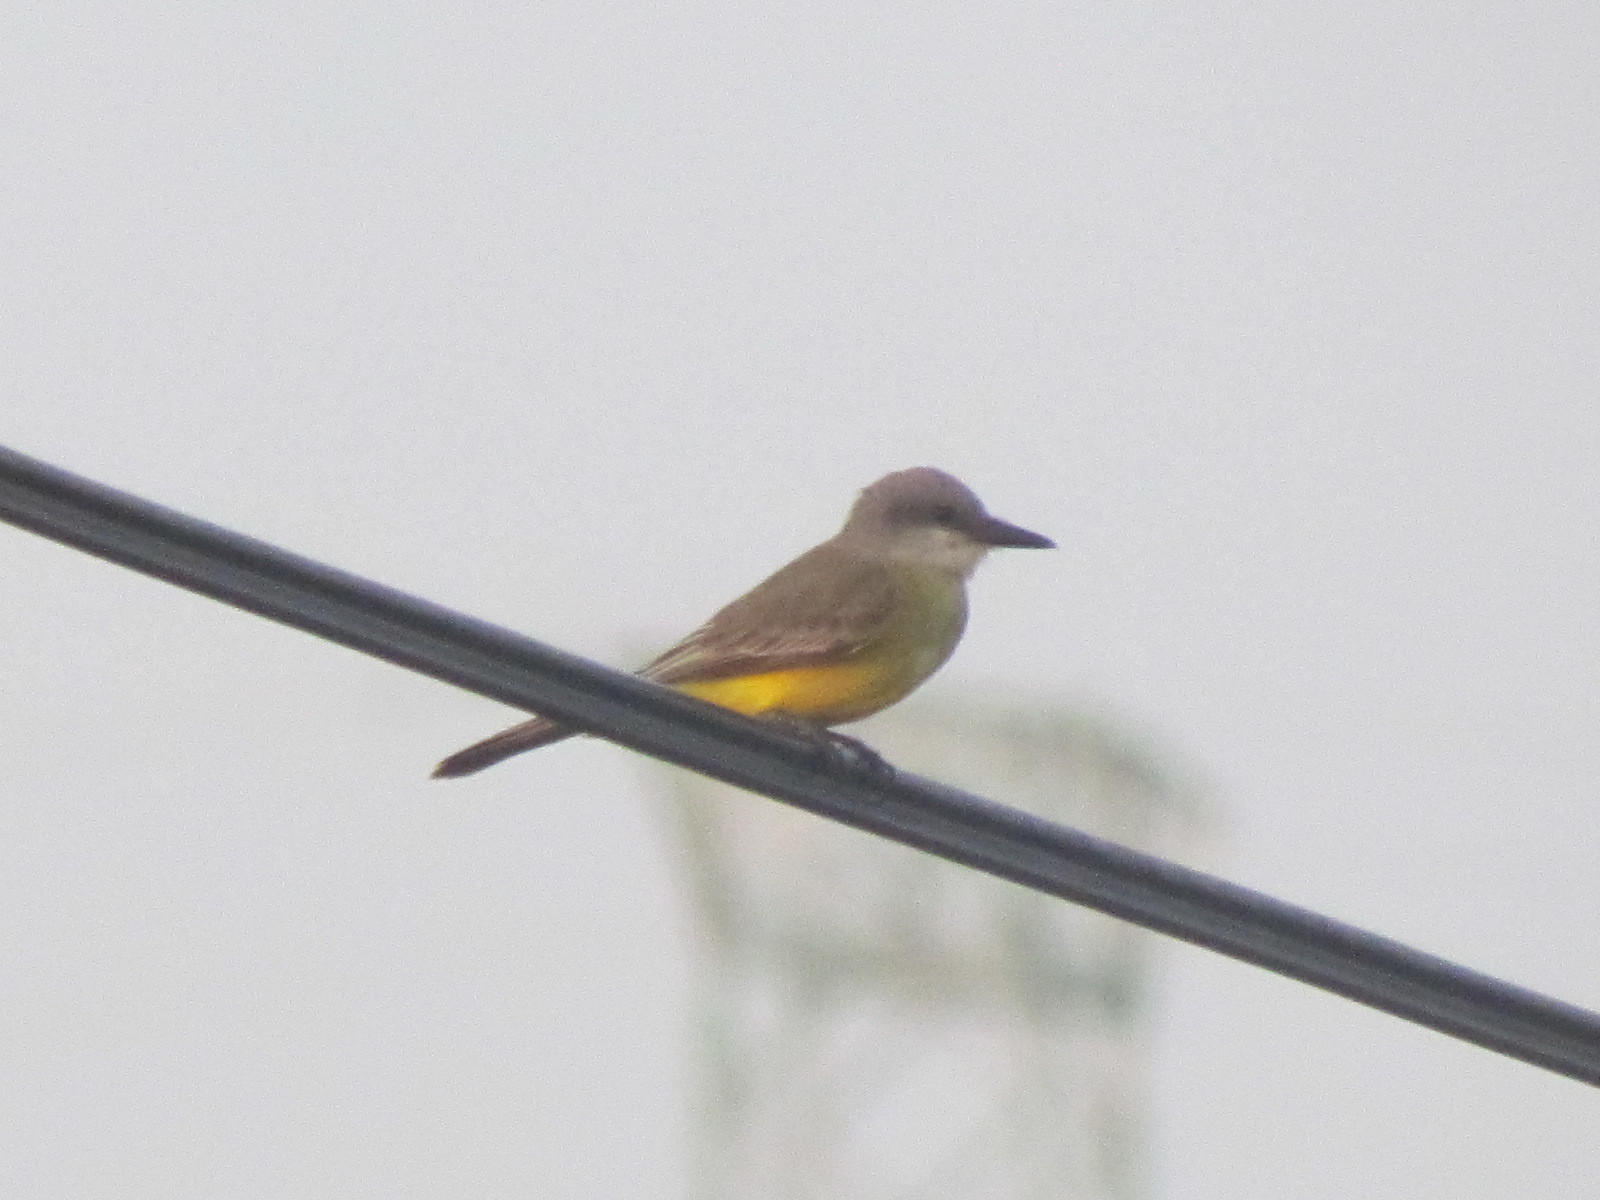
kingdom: Animalia
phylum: Chordata
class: Aves
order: Passeriformes
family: Tyrannidae
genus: Tyrannus
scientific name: Tyrannus melancholicus
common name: Tropical kingbird
